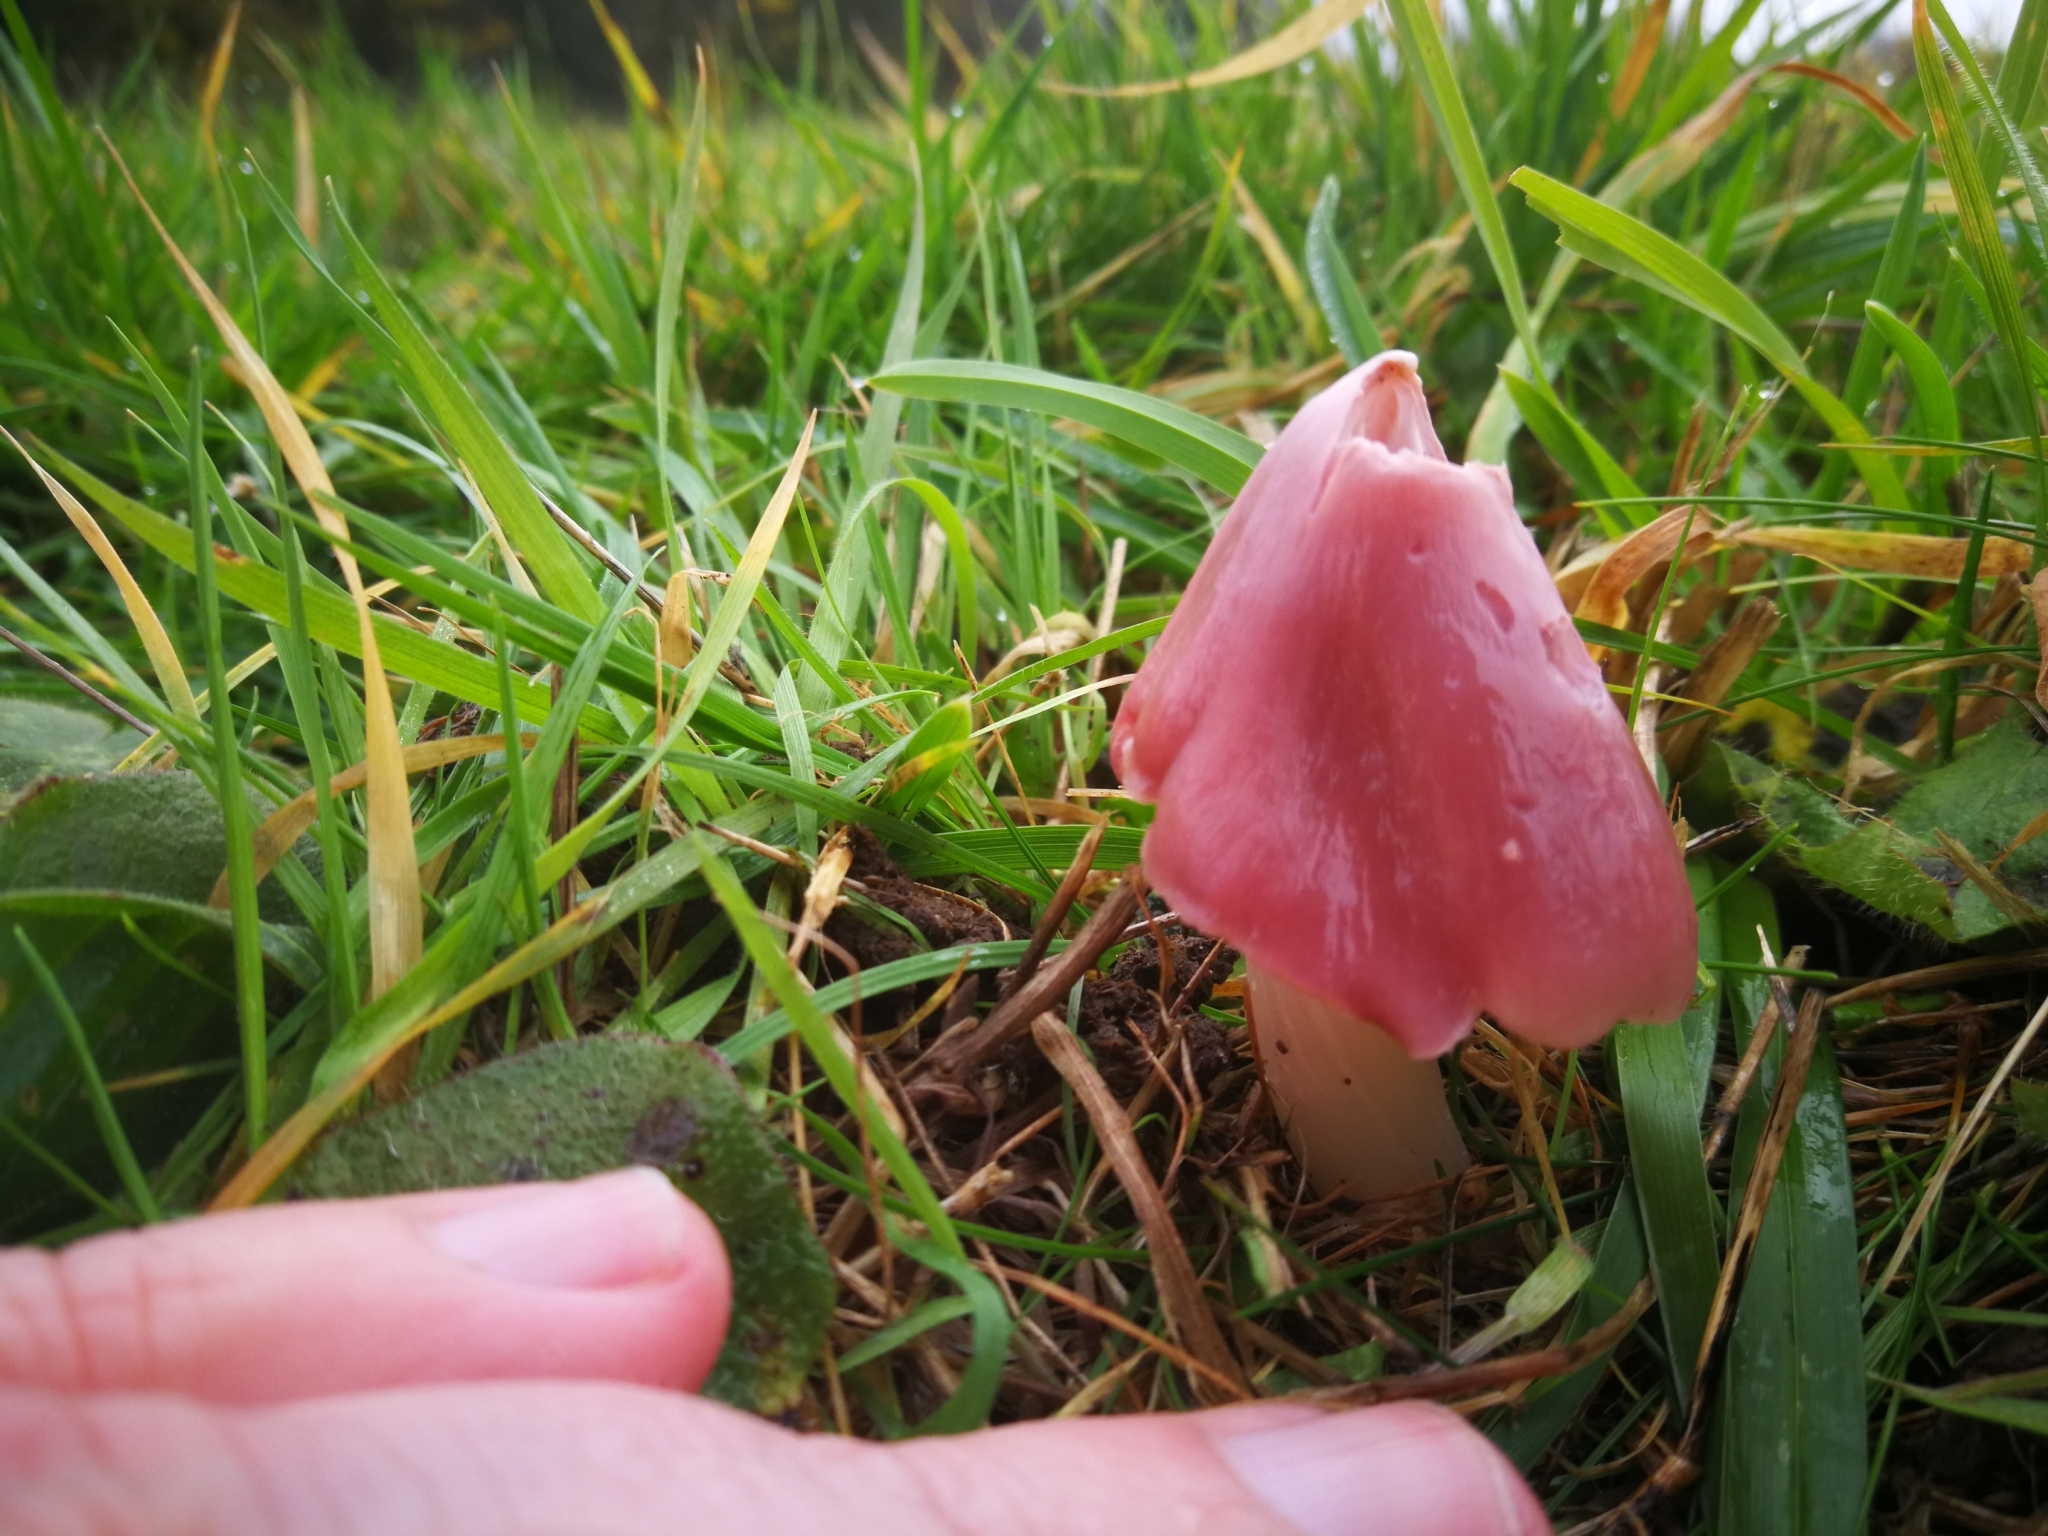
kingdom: Fungi
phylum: Basidiomycota
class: Agaricomycetes
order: Agaricales
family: Hygrophoraceae
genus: Porpolomopsis
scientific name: Porpolomopsis calyptriformis
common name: Pink waxcap
